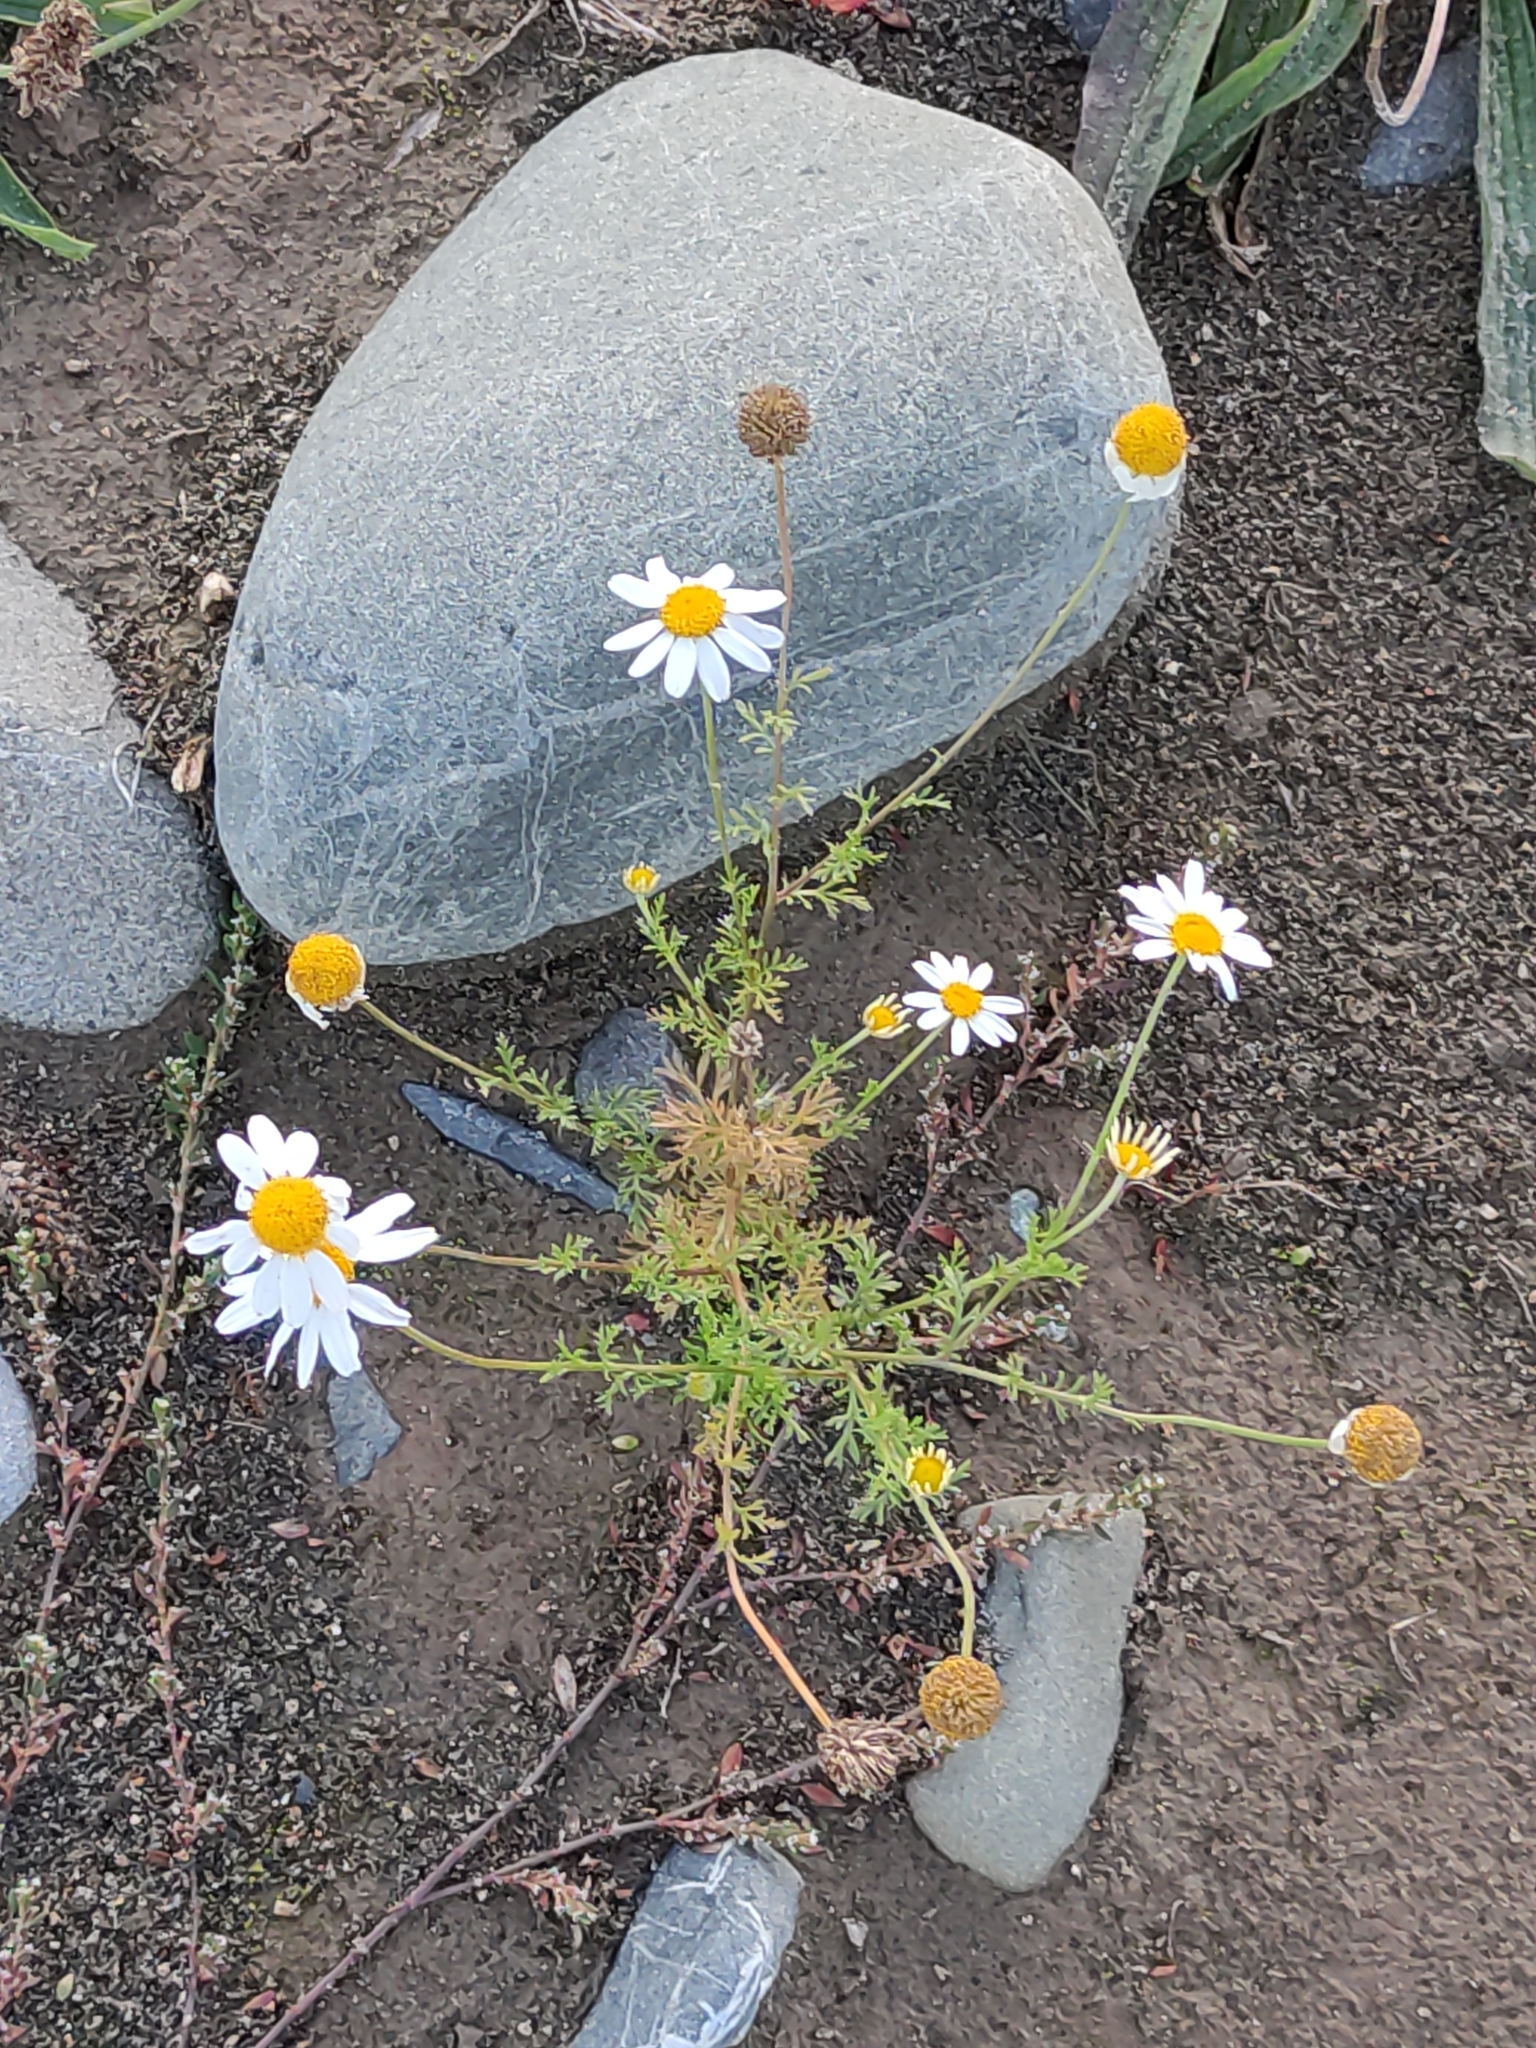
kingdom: Plantae
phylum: Tracheophyta
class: Magnoliopsida
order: Asterales
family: Asteraceae
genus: Leucanthemum
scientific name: Leucanthemum vulgare
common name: Oxeye daisy
